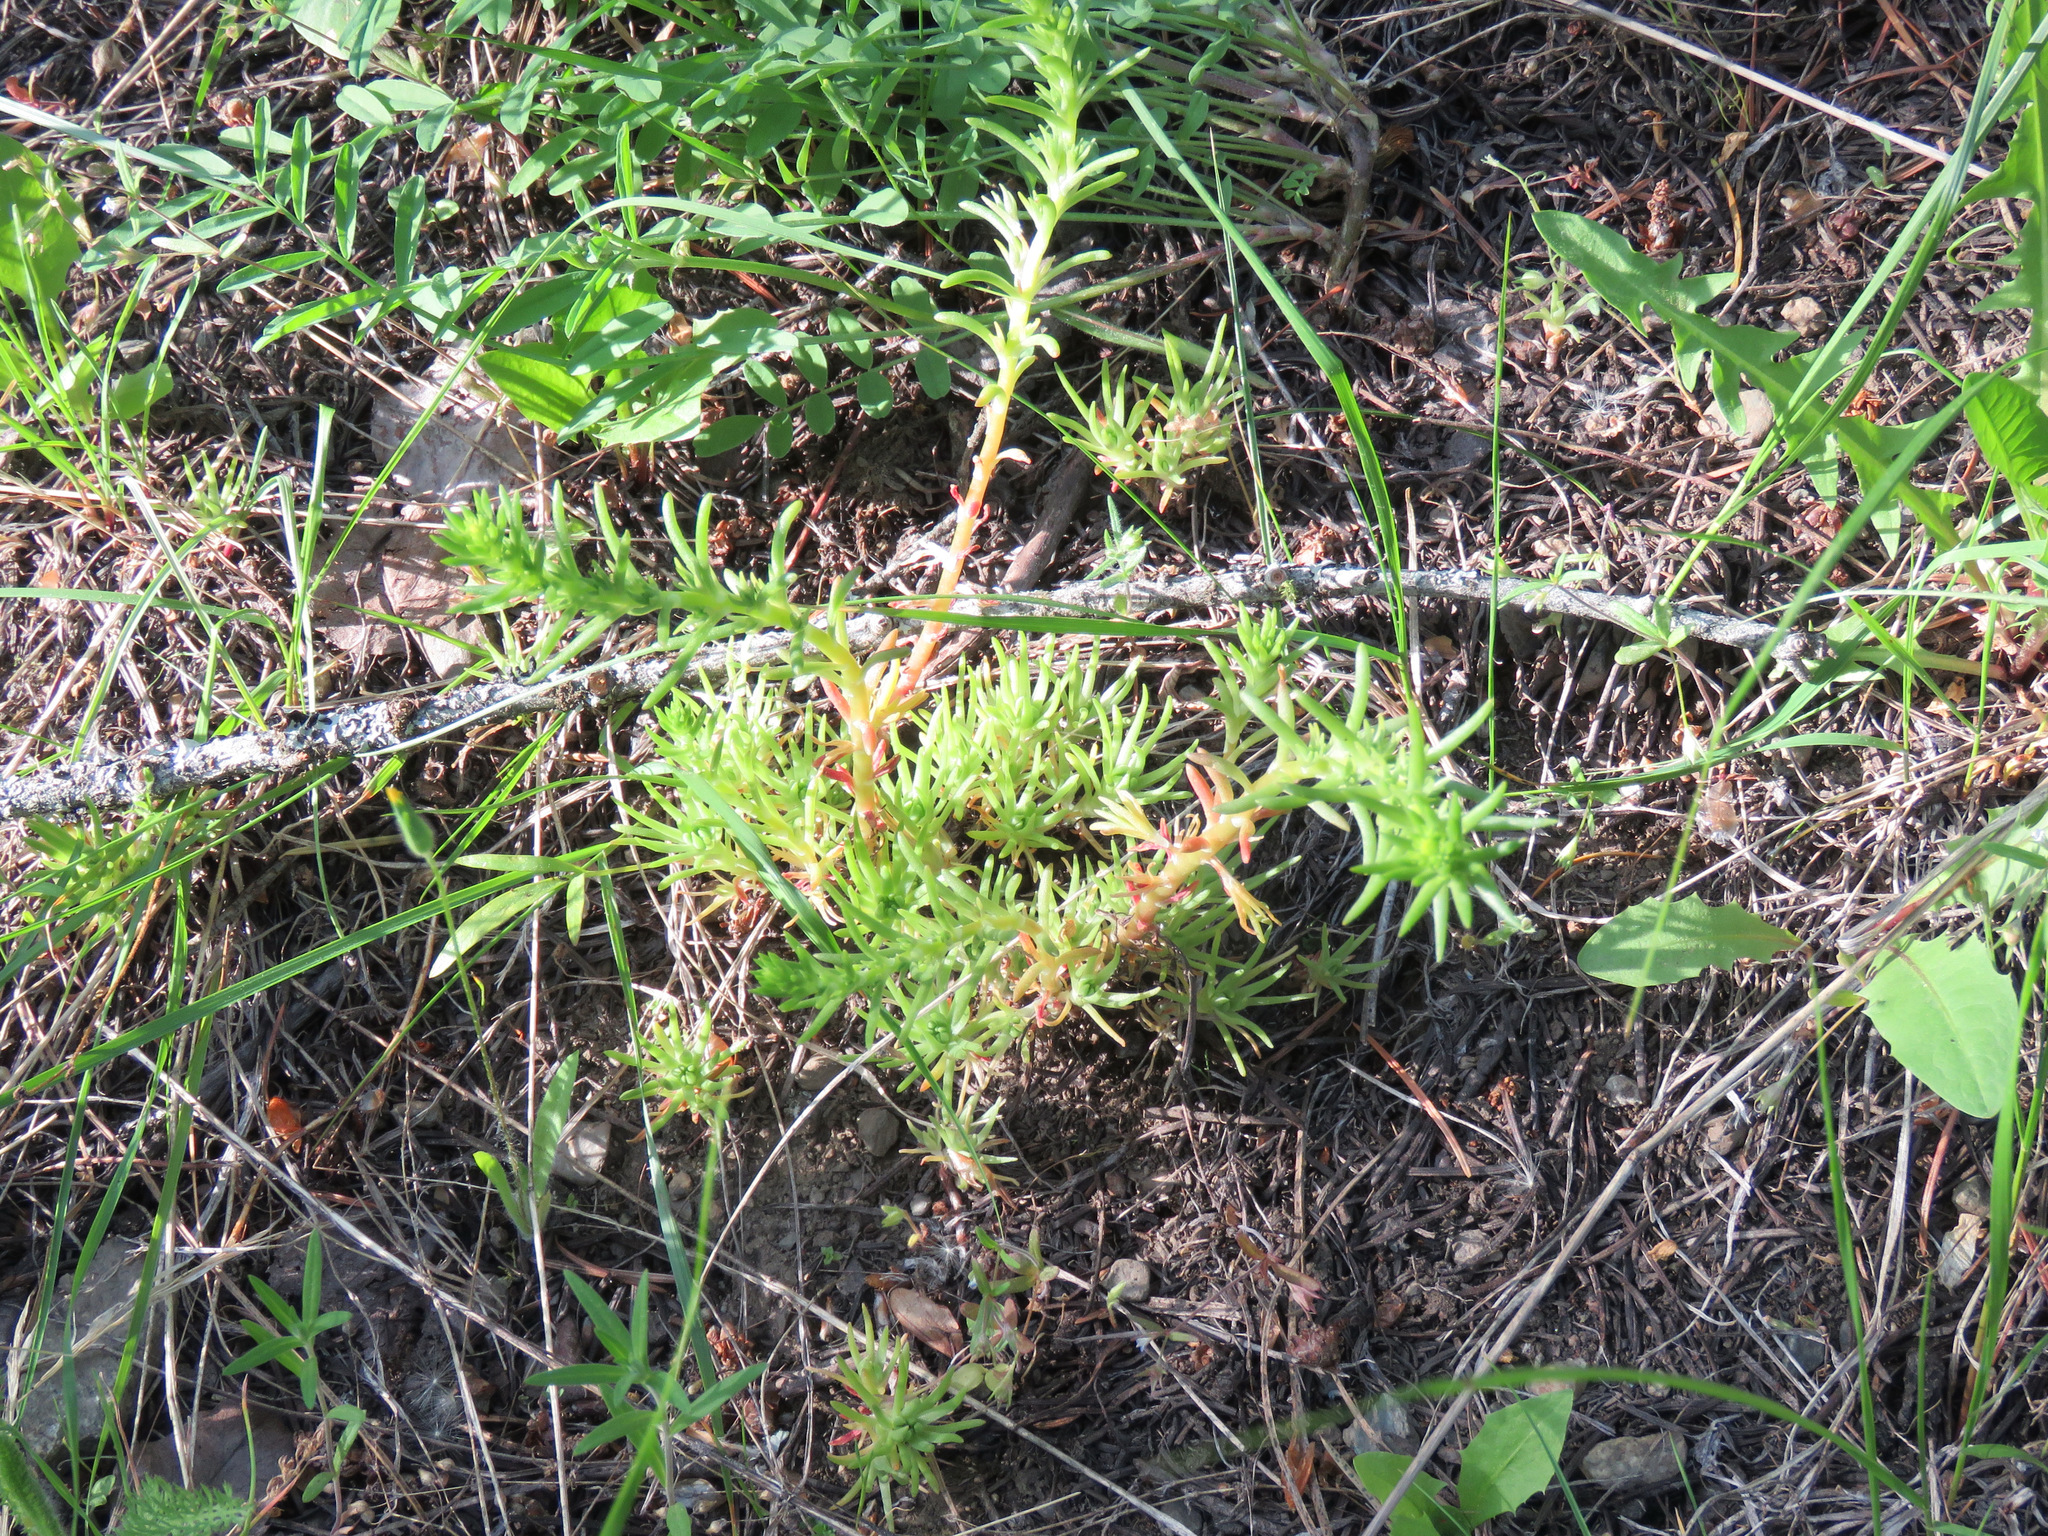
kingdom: Plantae
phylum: Tracheophyta
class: Magnoliopsida
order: Saxifragales
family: Crassulaceae
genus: Sedum
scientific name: Sedum stenopetalum
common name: Narrow-petaled stonecrop
